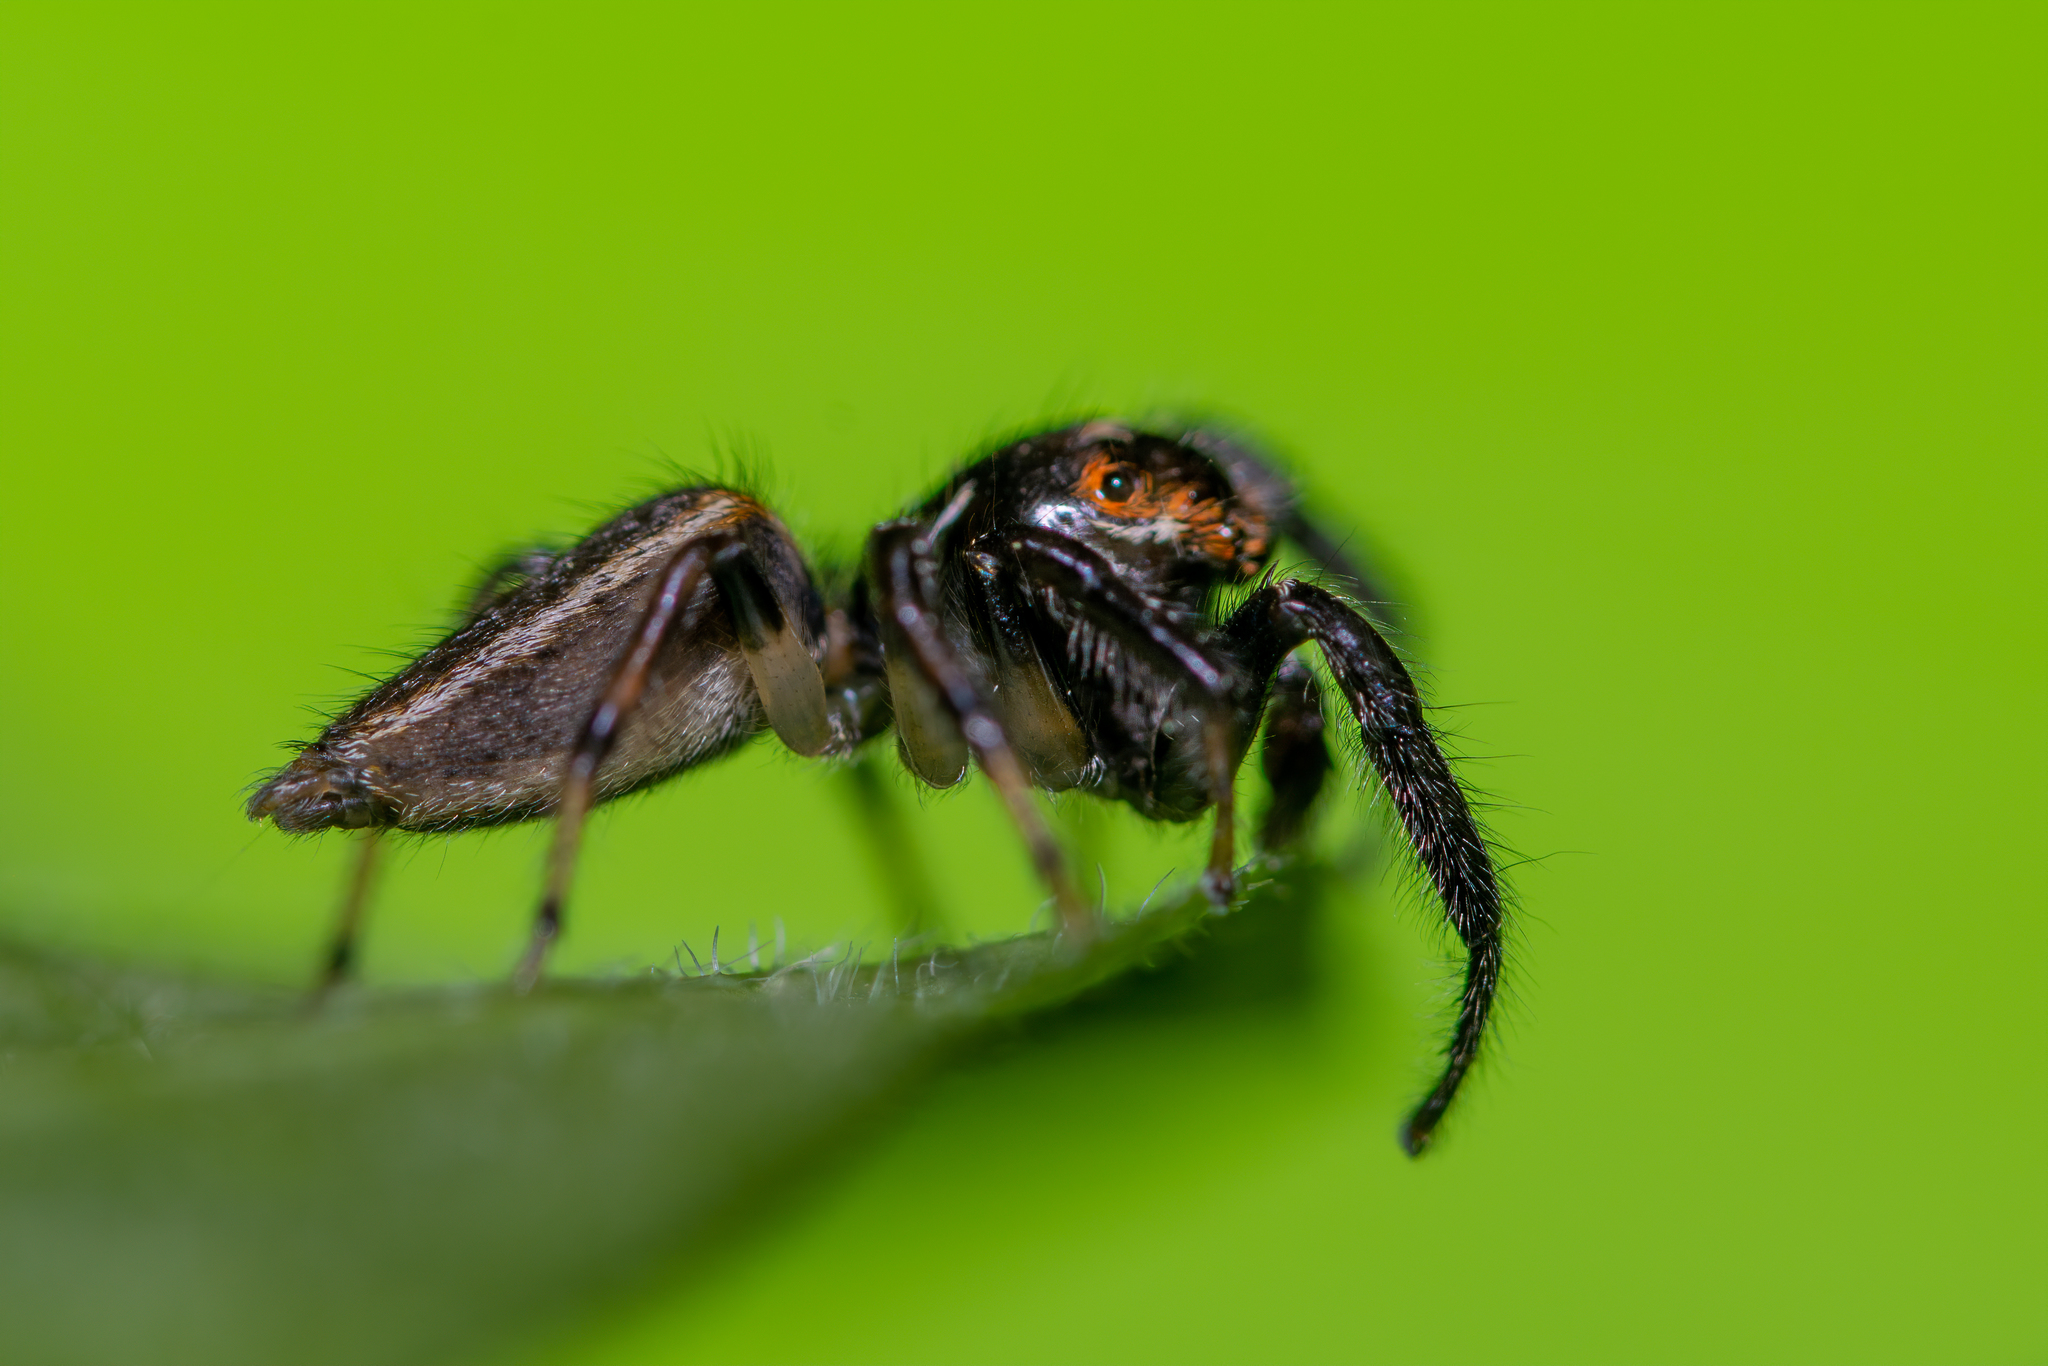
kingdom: Animalia
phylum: Arthropoda
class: Arachnida
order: Araneae
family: Salticidae
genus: Colonus
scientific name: Colonus sylvanus
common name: Jumping spiders
